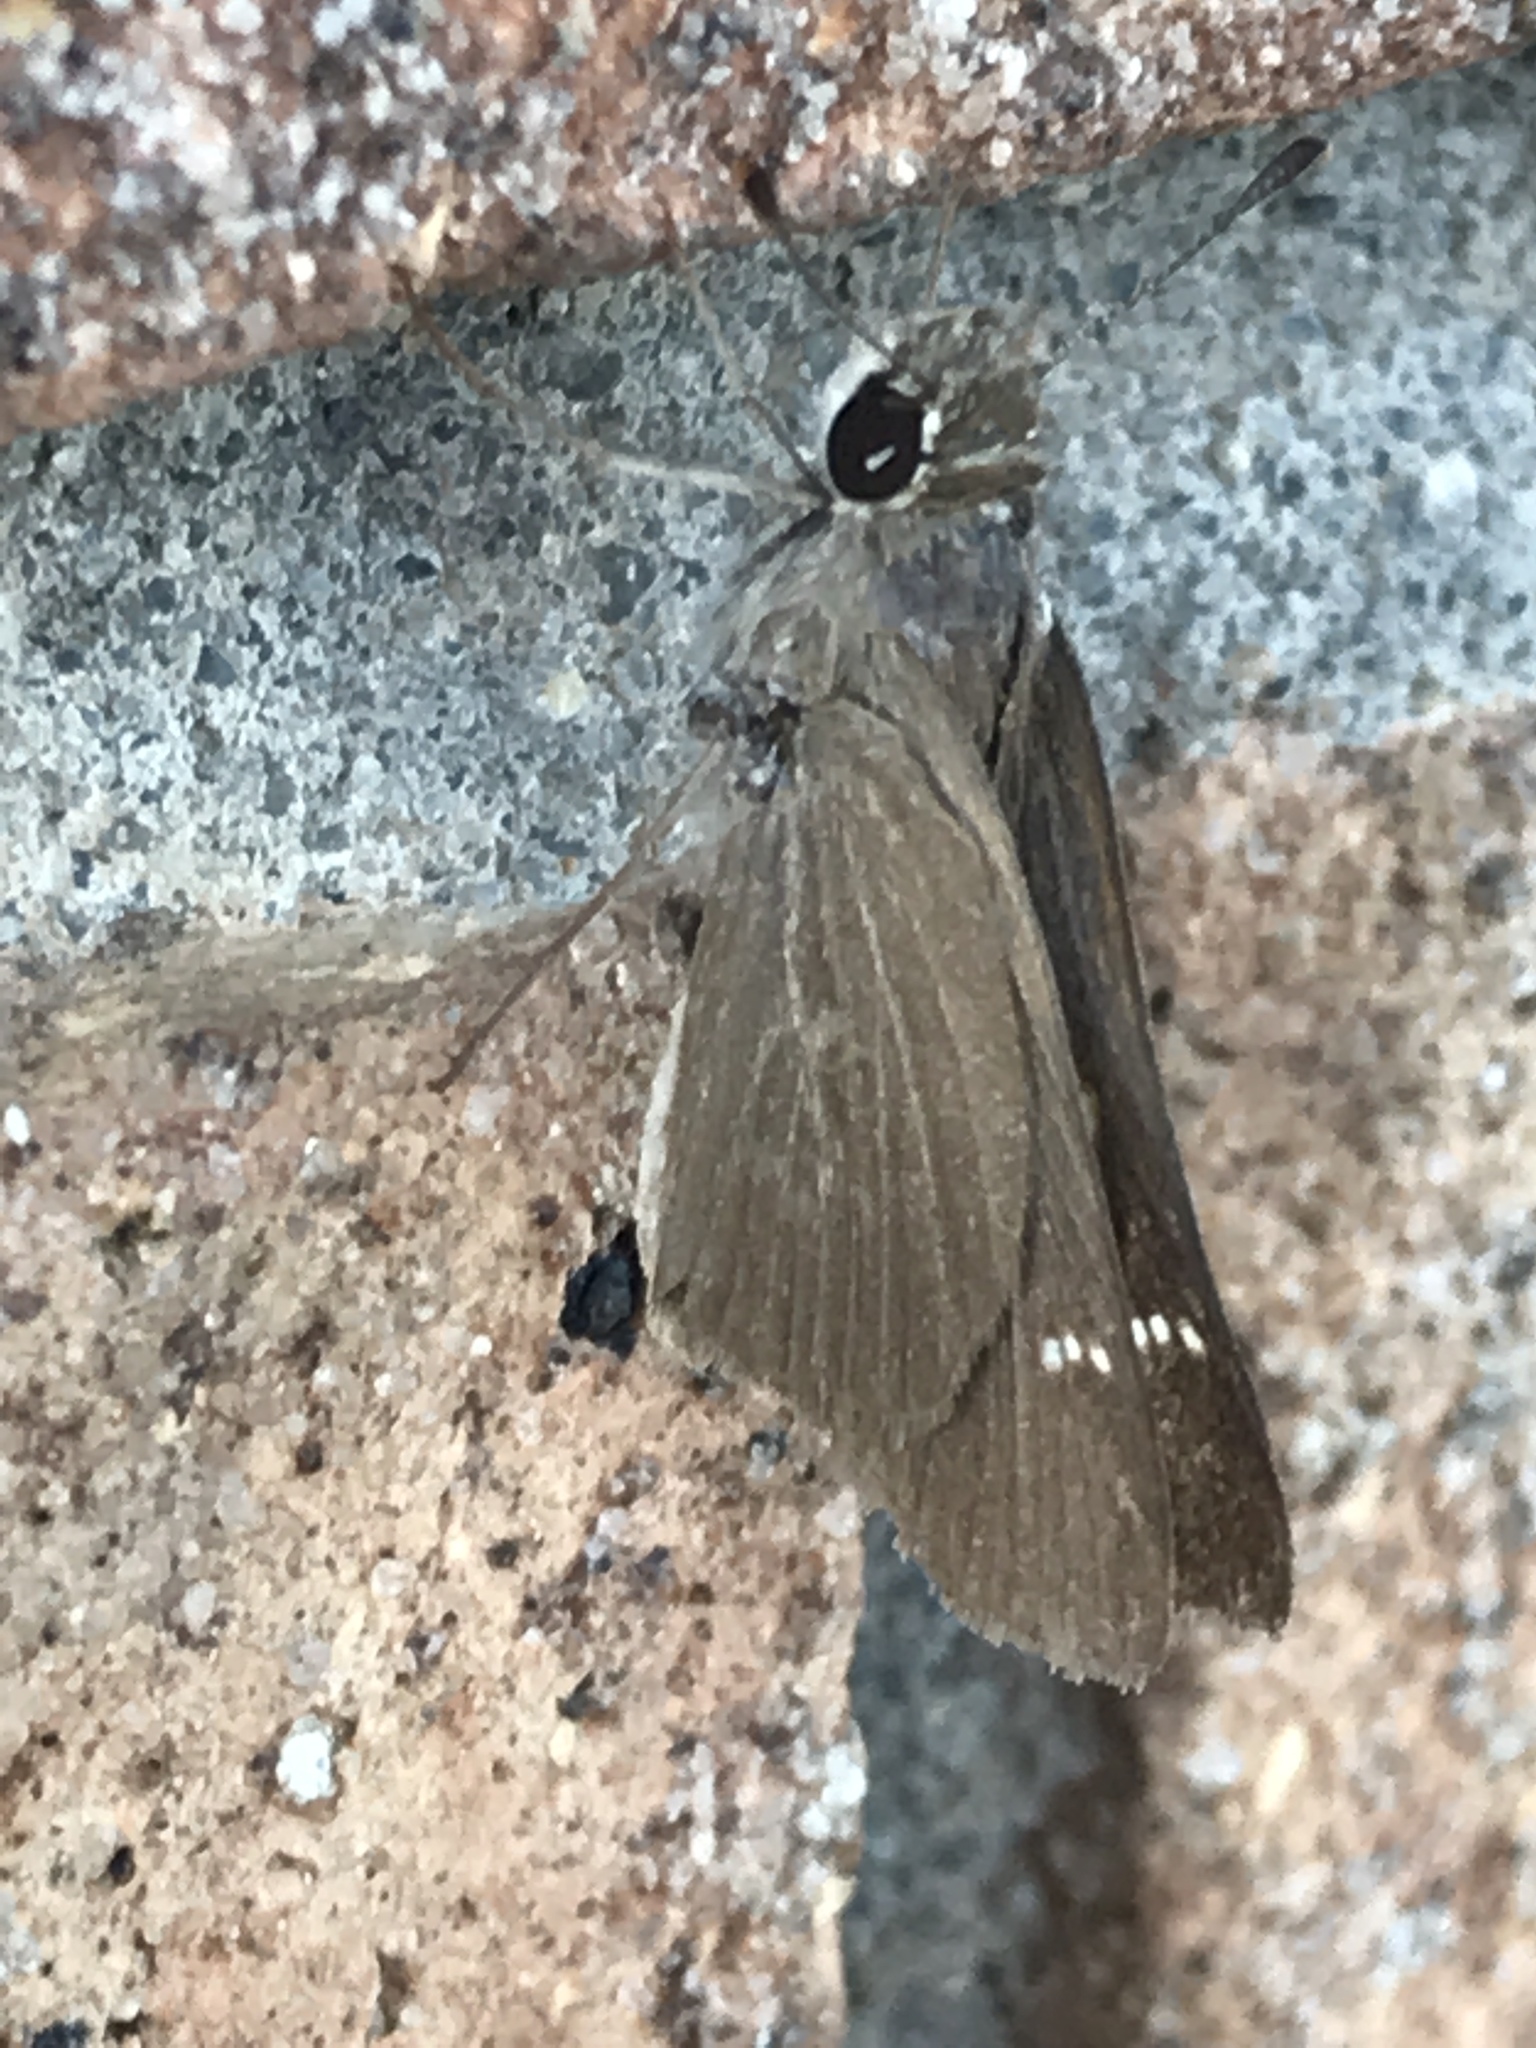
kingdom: Animalia
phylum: Arthropoda
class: Insecta
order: Lepidoptera
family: Hesperiidae
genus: Lerodea
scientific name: Lerodea eufala
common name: Eufala skipper
